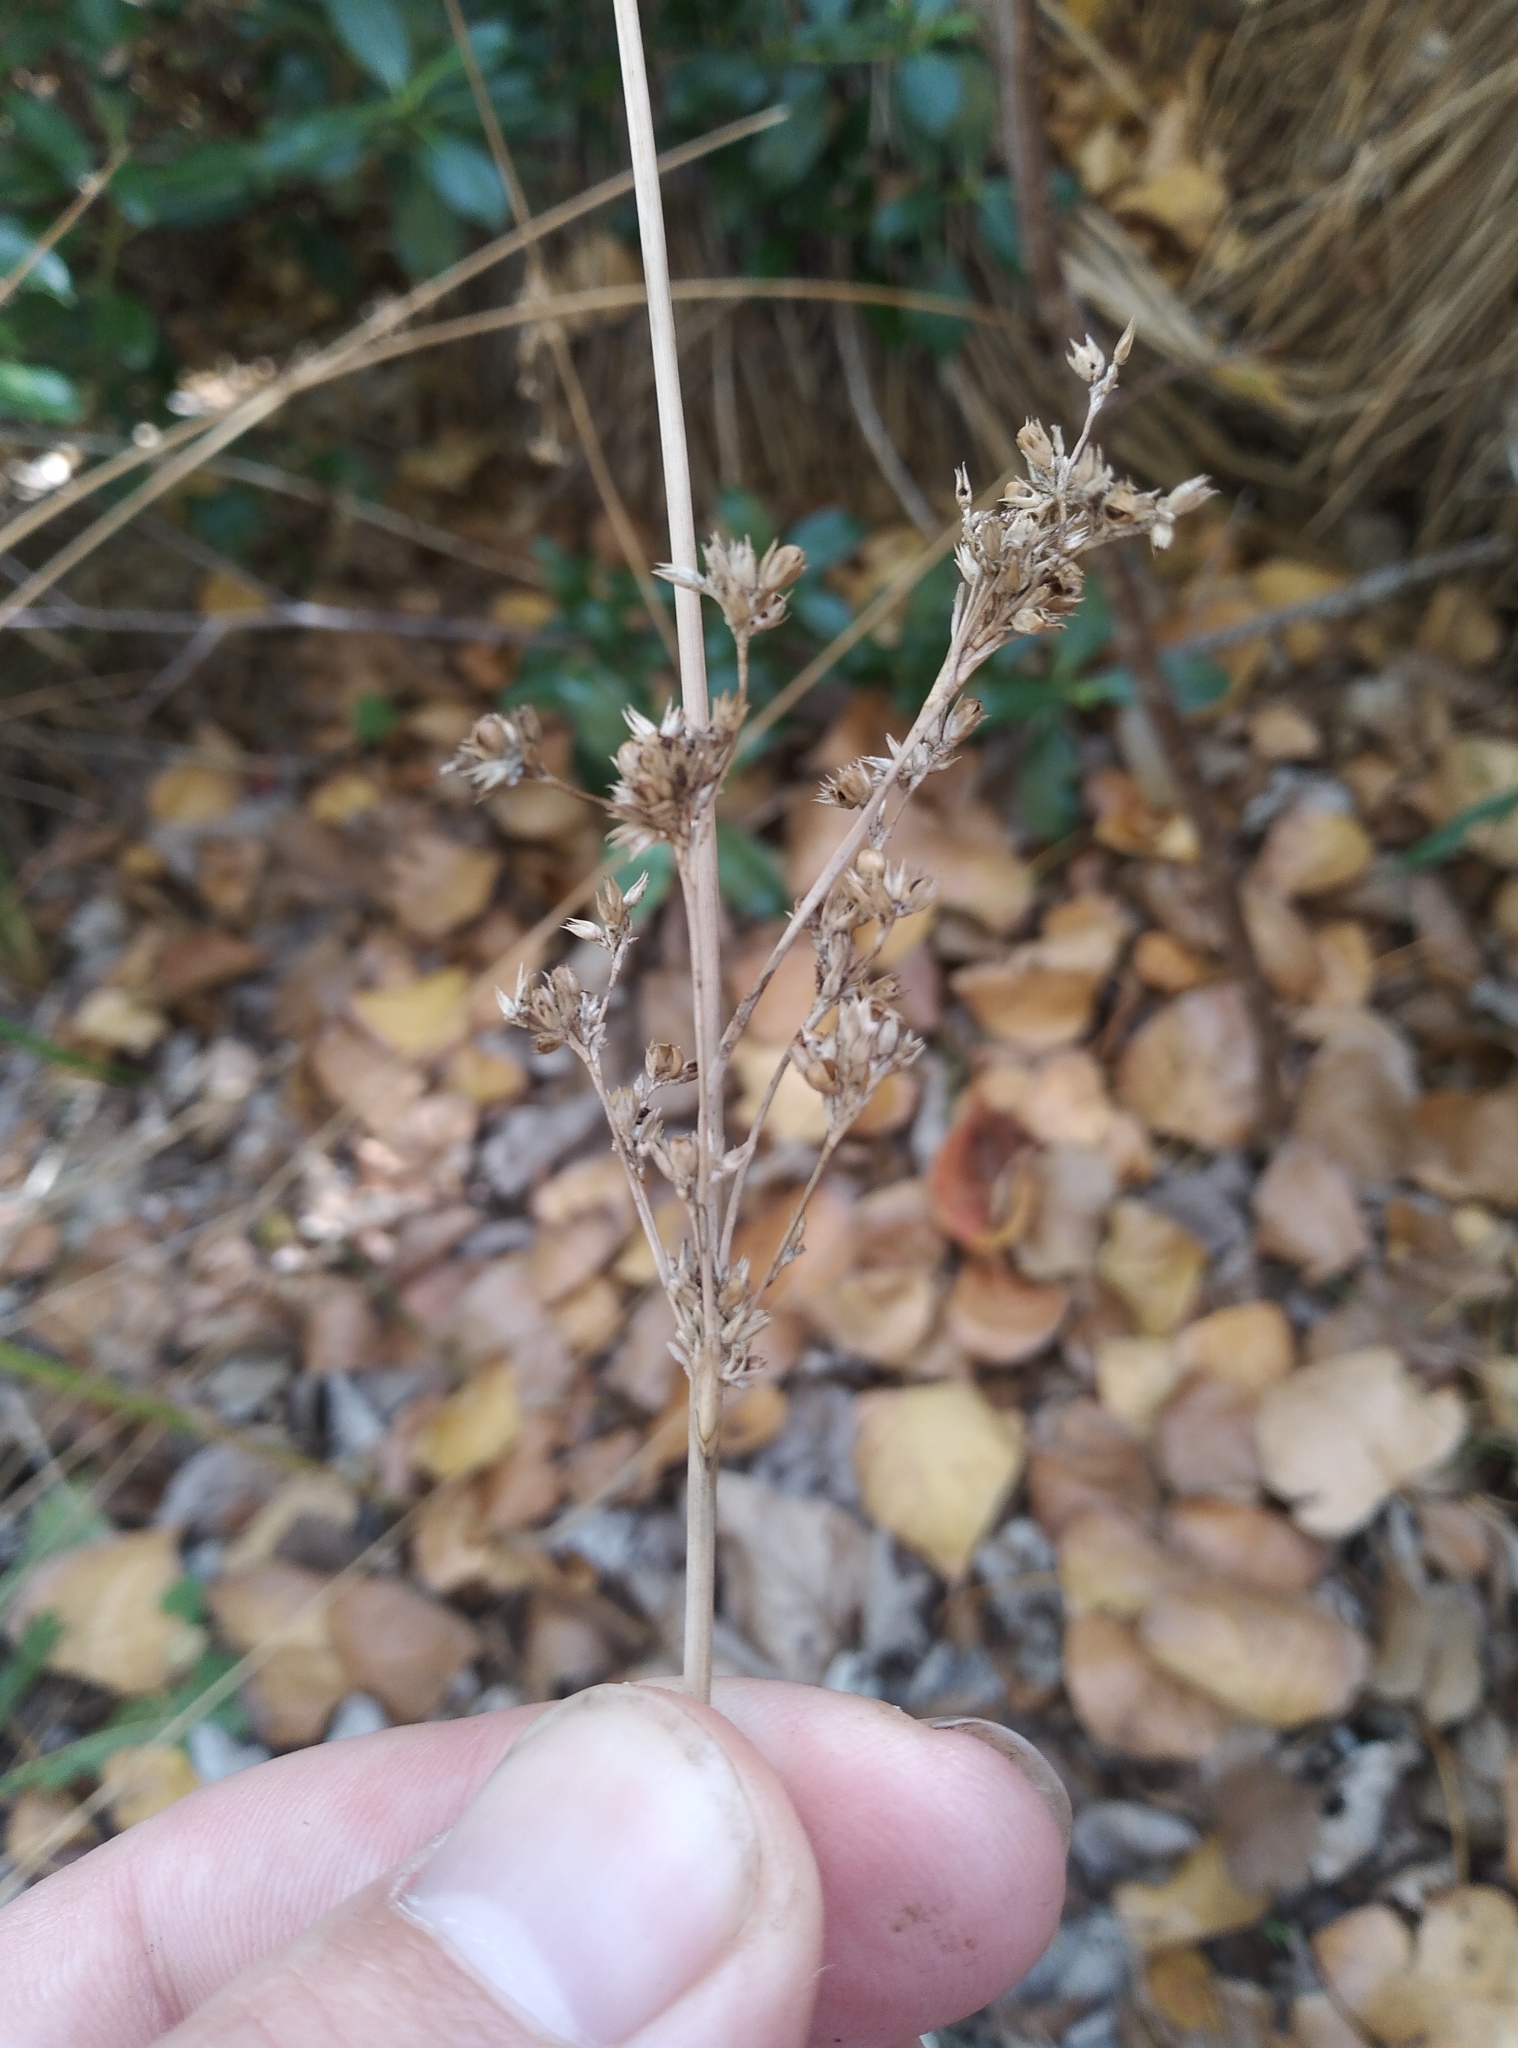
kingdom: Plantae
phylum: Tracheophyta
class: Liliopsida
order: Poales
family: Juncaceae
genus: Juncus
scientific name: Juncus edgariae
